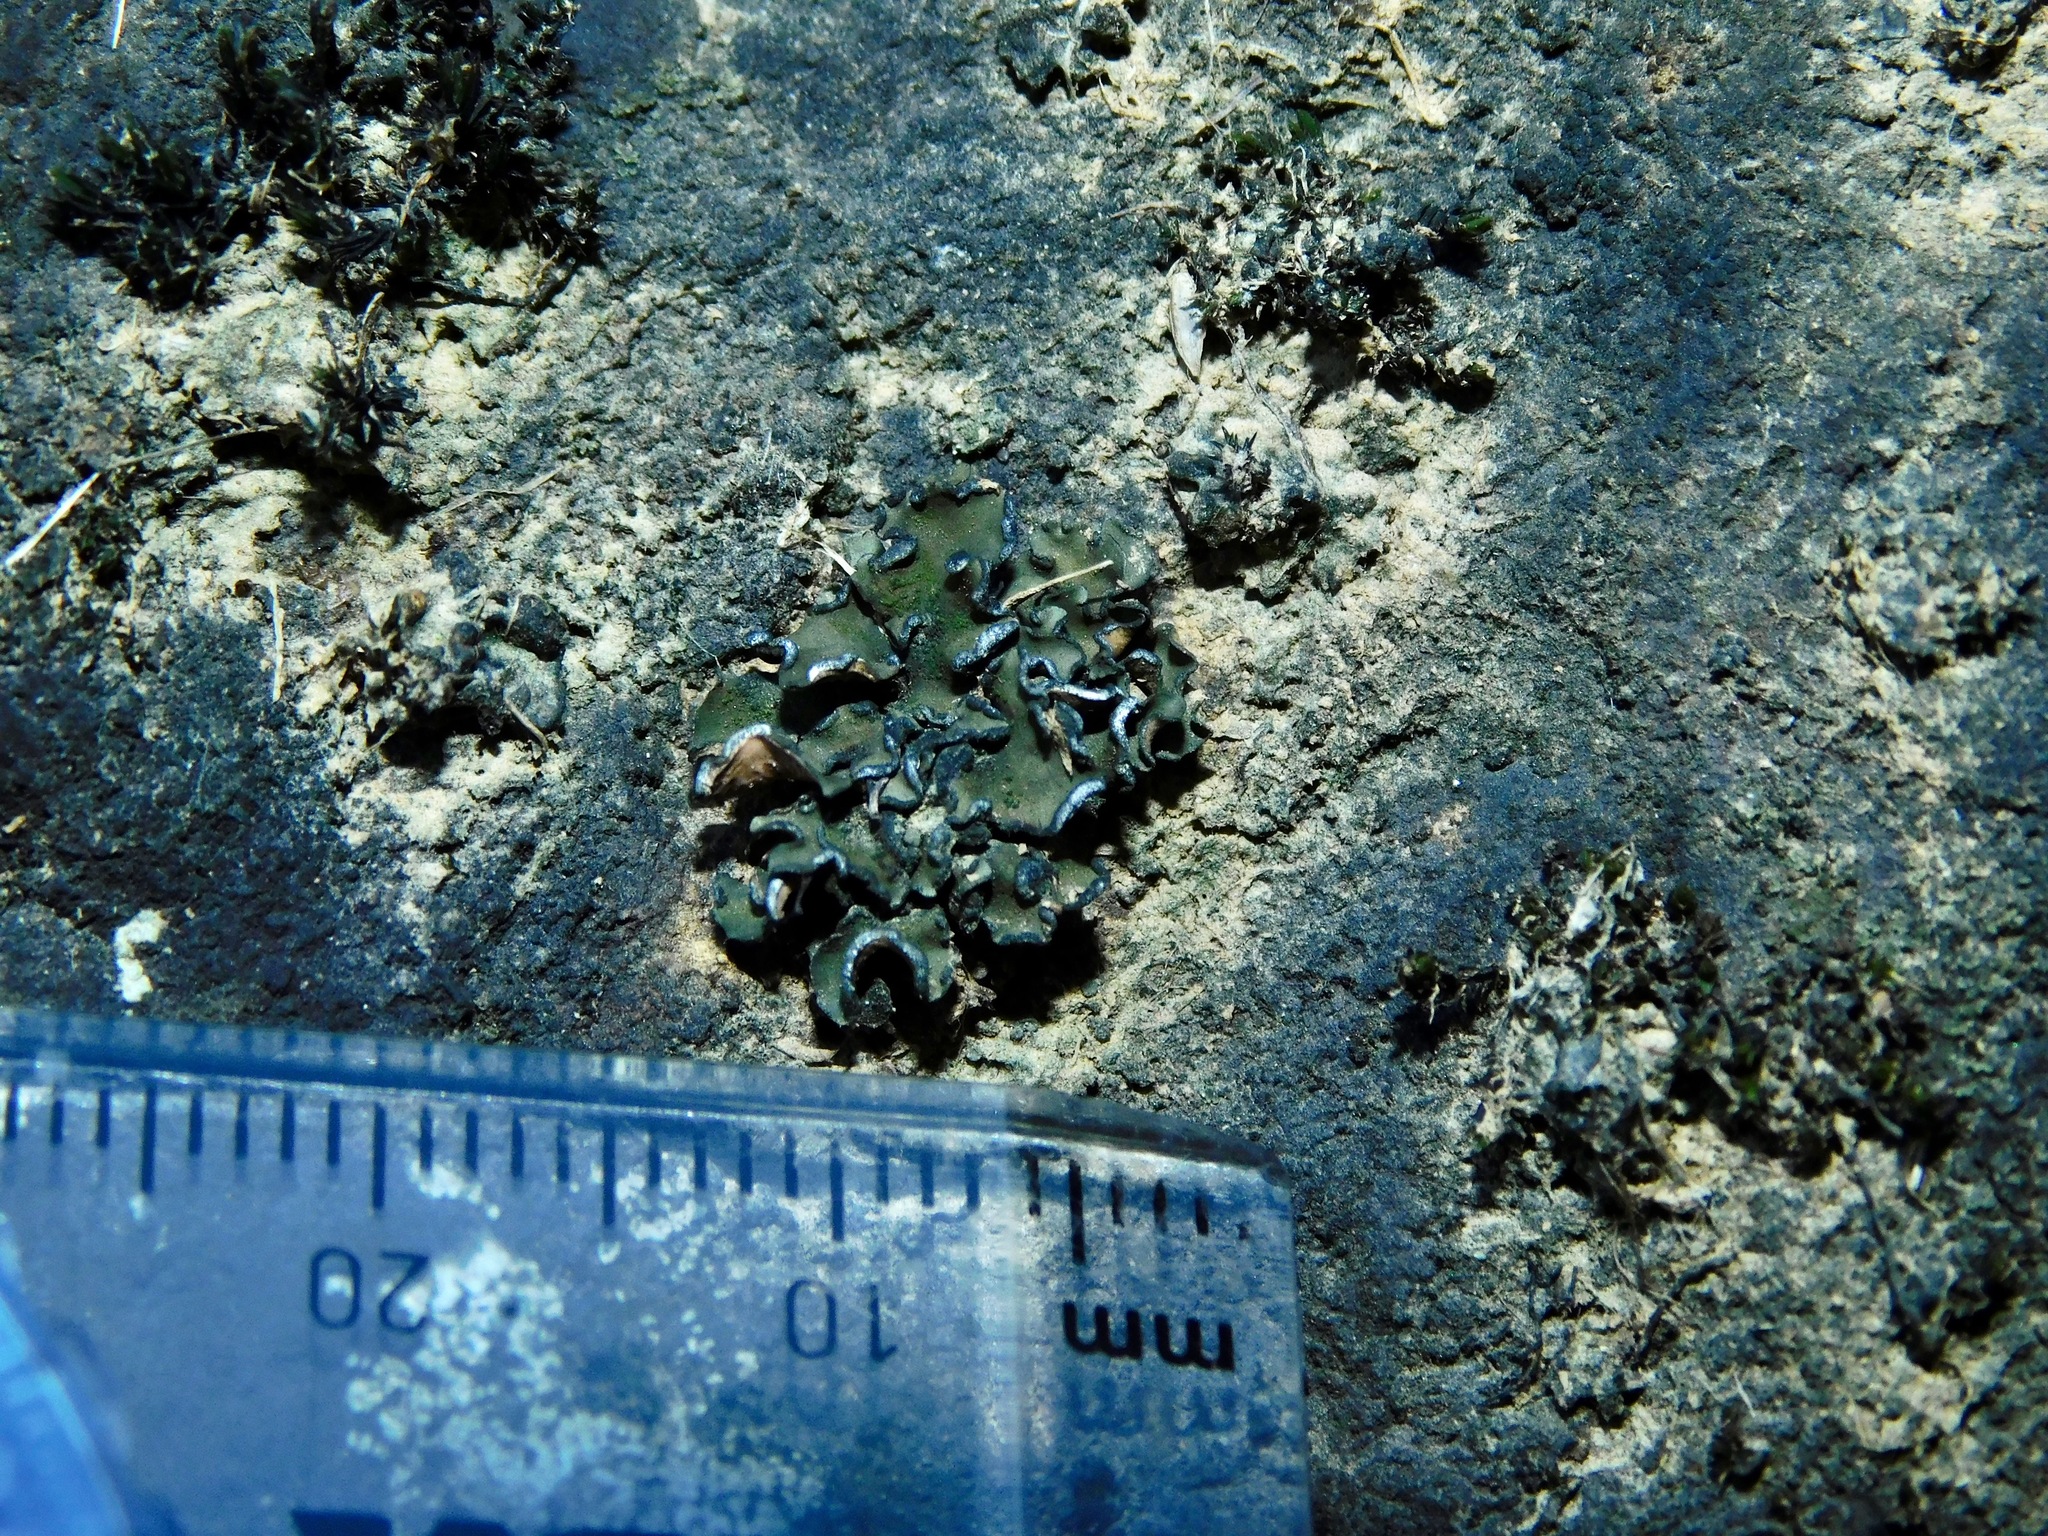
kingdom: Fungi
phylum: Ascomycota
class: Lichinomycetes
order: Lichinales
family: Peltulaceae
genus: Peltula
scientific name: Peltula euploca
